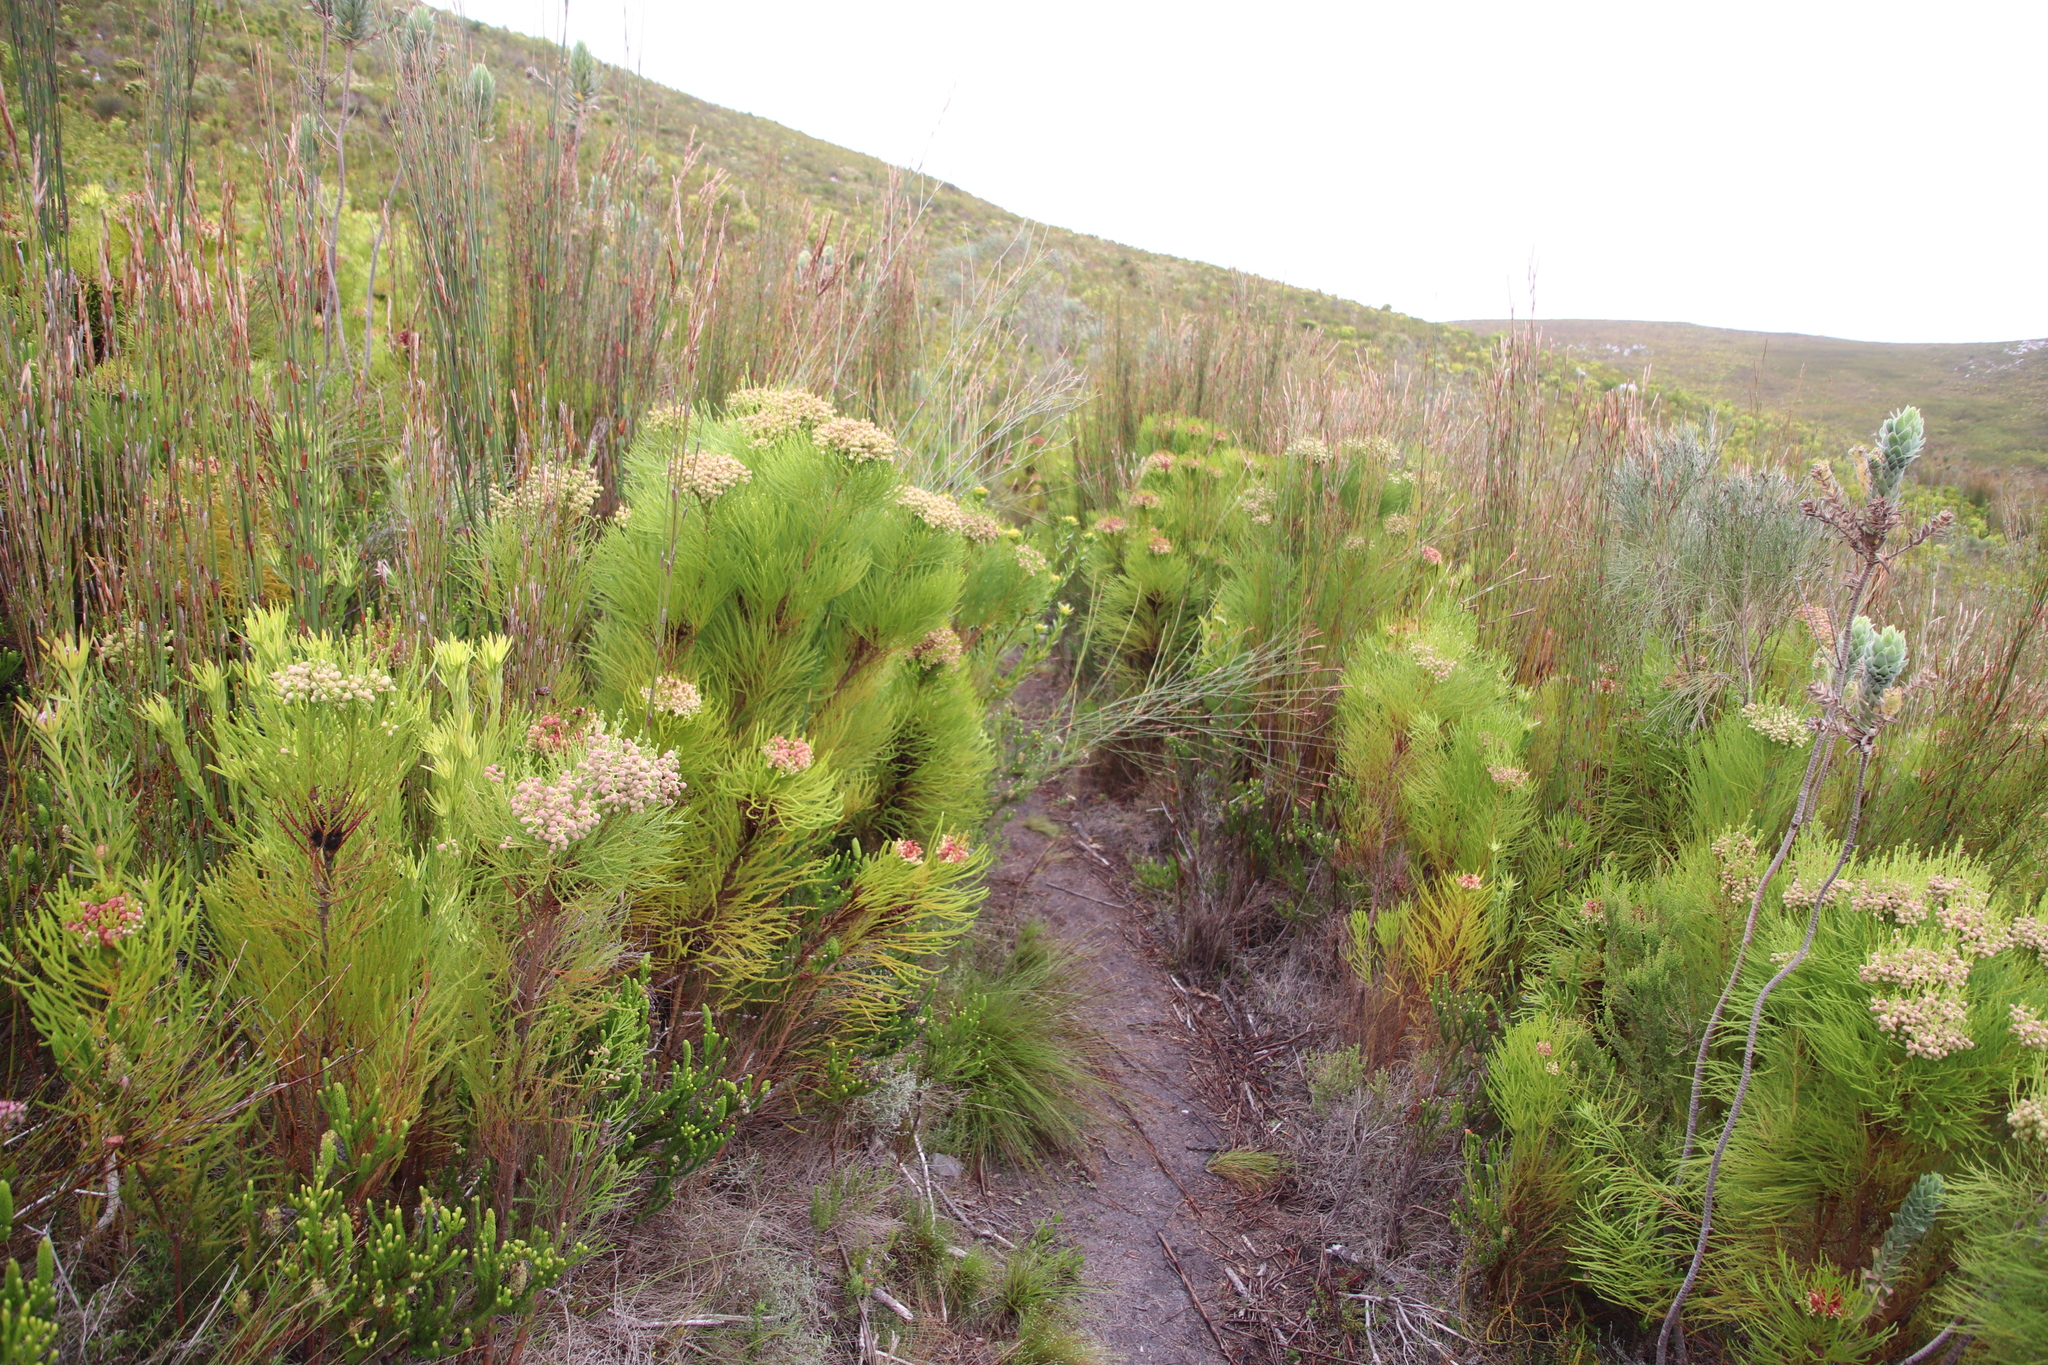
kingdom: Plantae
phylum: Tracheophyta
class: Magnoliopsida
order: Bruniales
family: Bruniaceae
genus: Berzelia
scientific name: Berzelia lanuginosa
